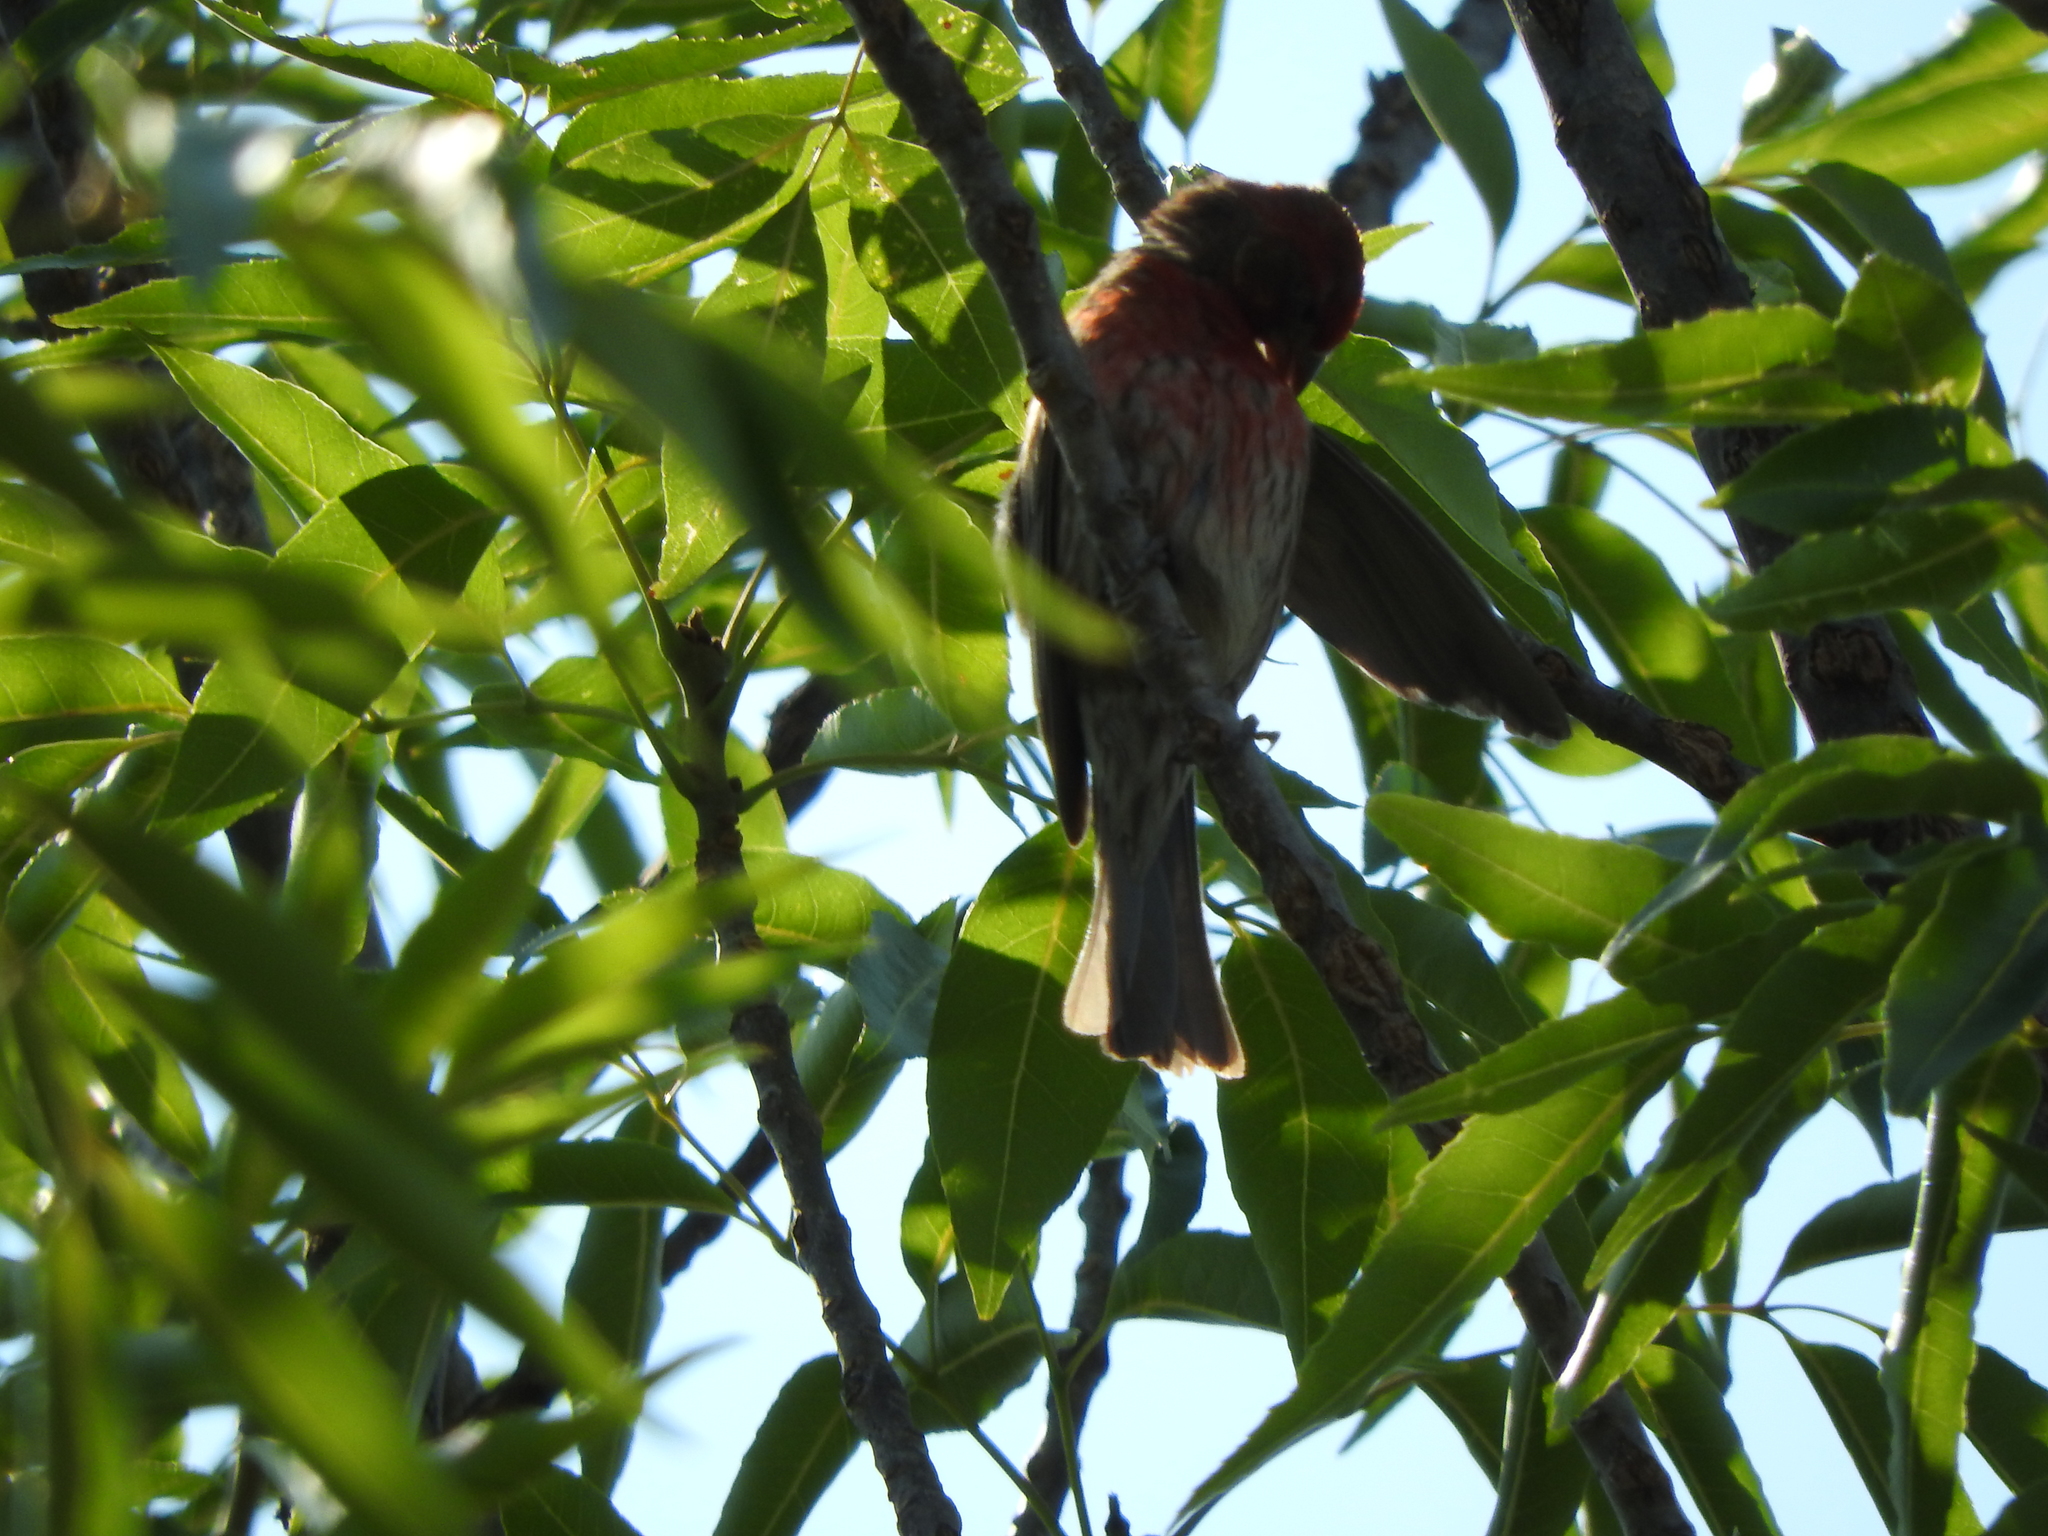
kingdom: Animalia
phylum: Chordata
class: Aves
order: Passeriformes
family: Fringillidae
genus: Haemorhous
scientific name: Haemorhous mexicanus
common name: House finch
